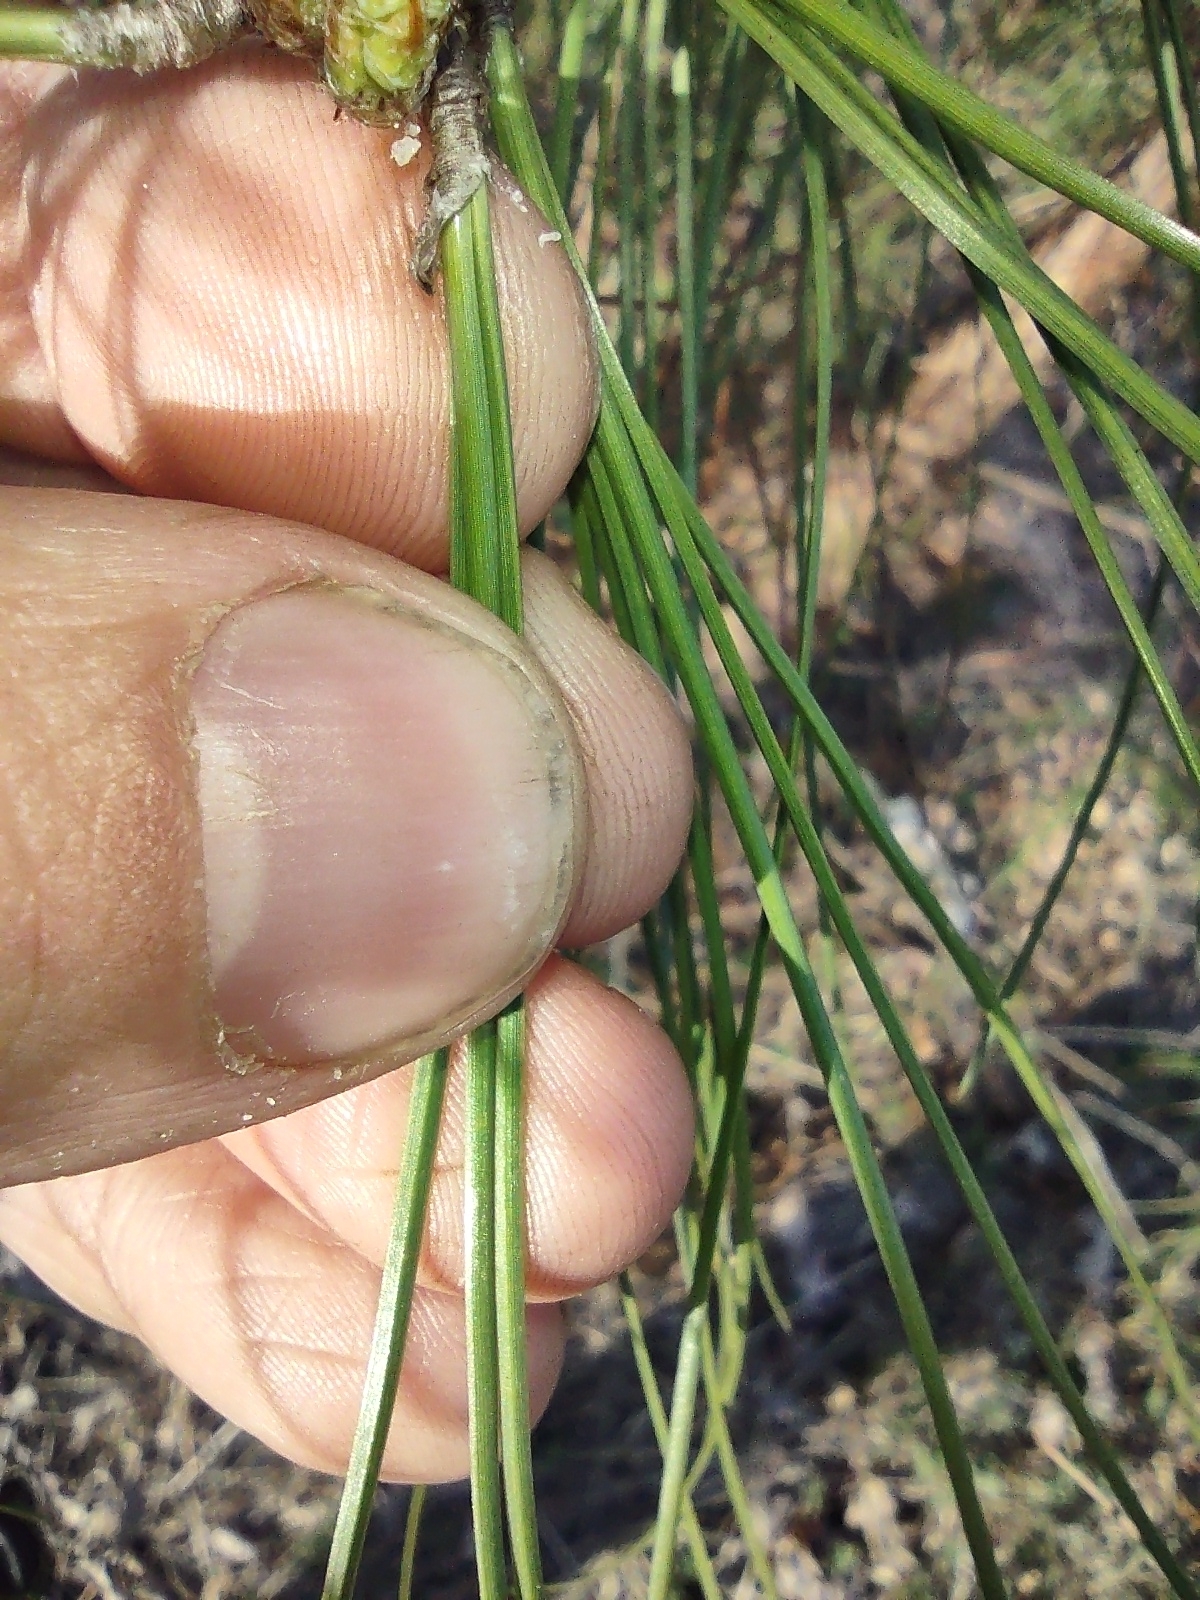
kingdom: Plantae
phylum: Tracheophyta
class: Pinopsida
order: Pinales
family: Pinaceae
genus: Pinus
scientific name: Pinus taeda
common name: Loblolly pine
